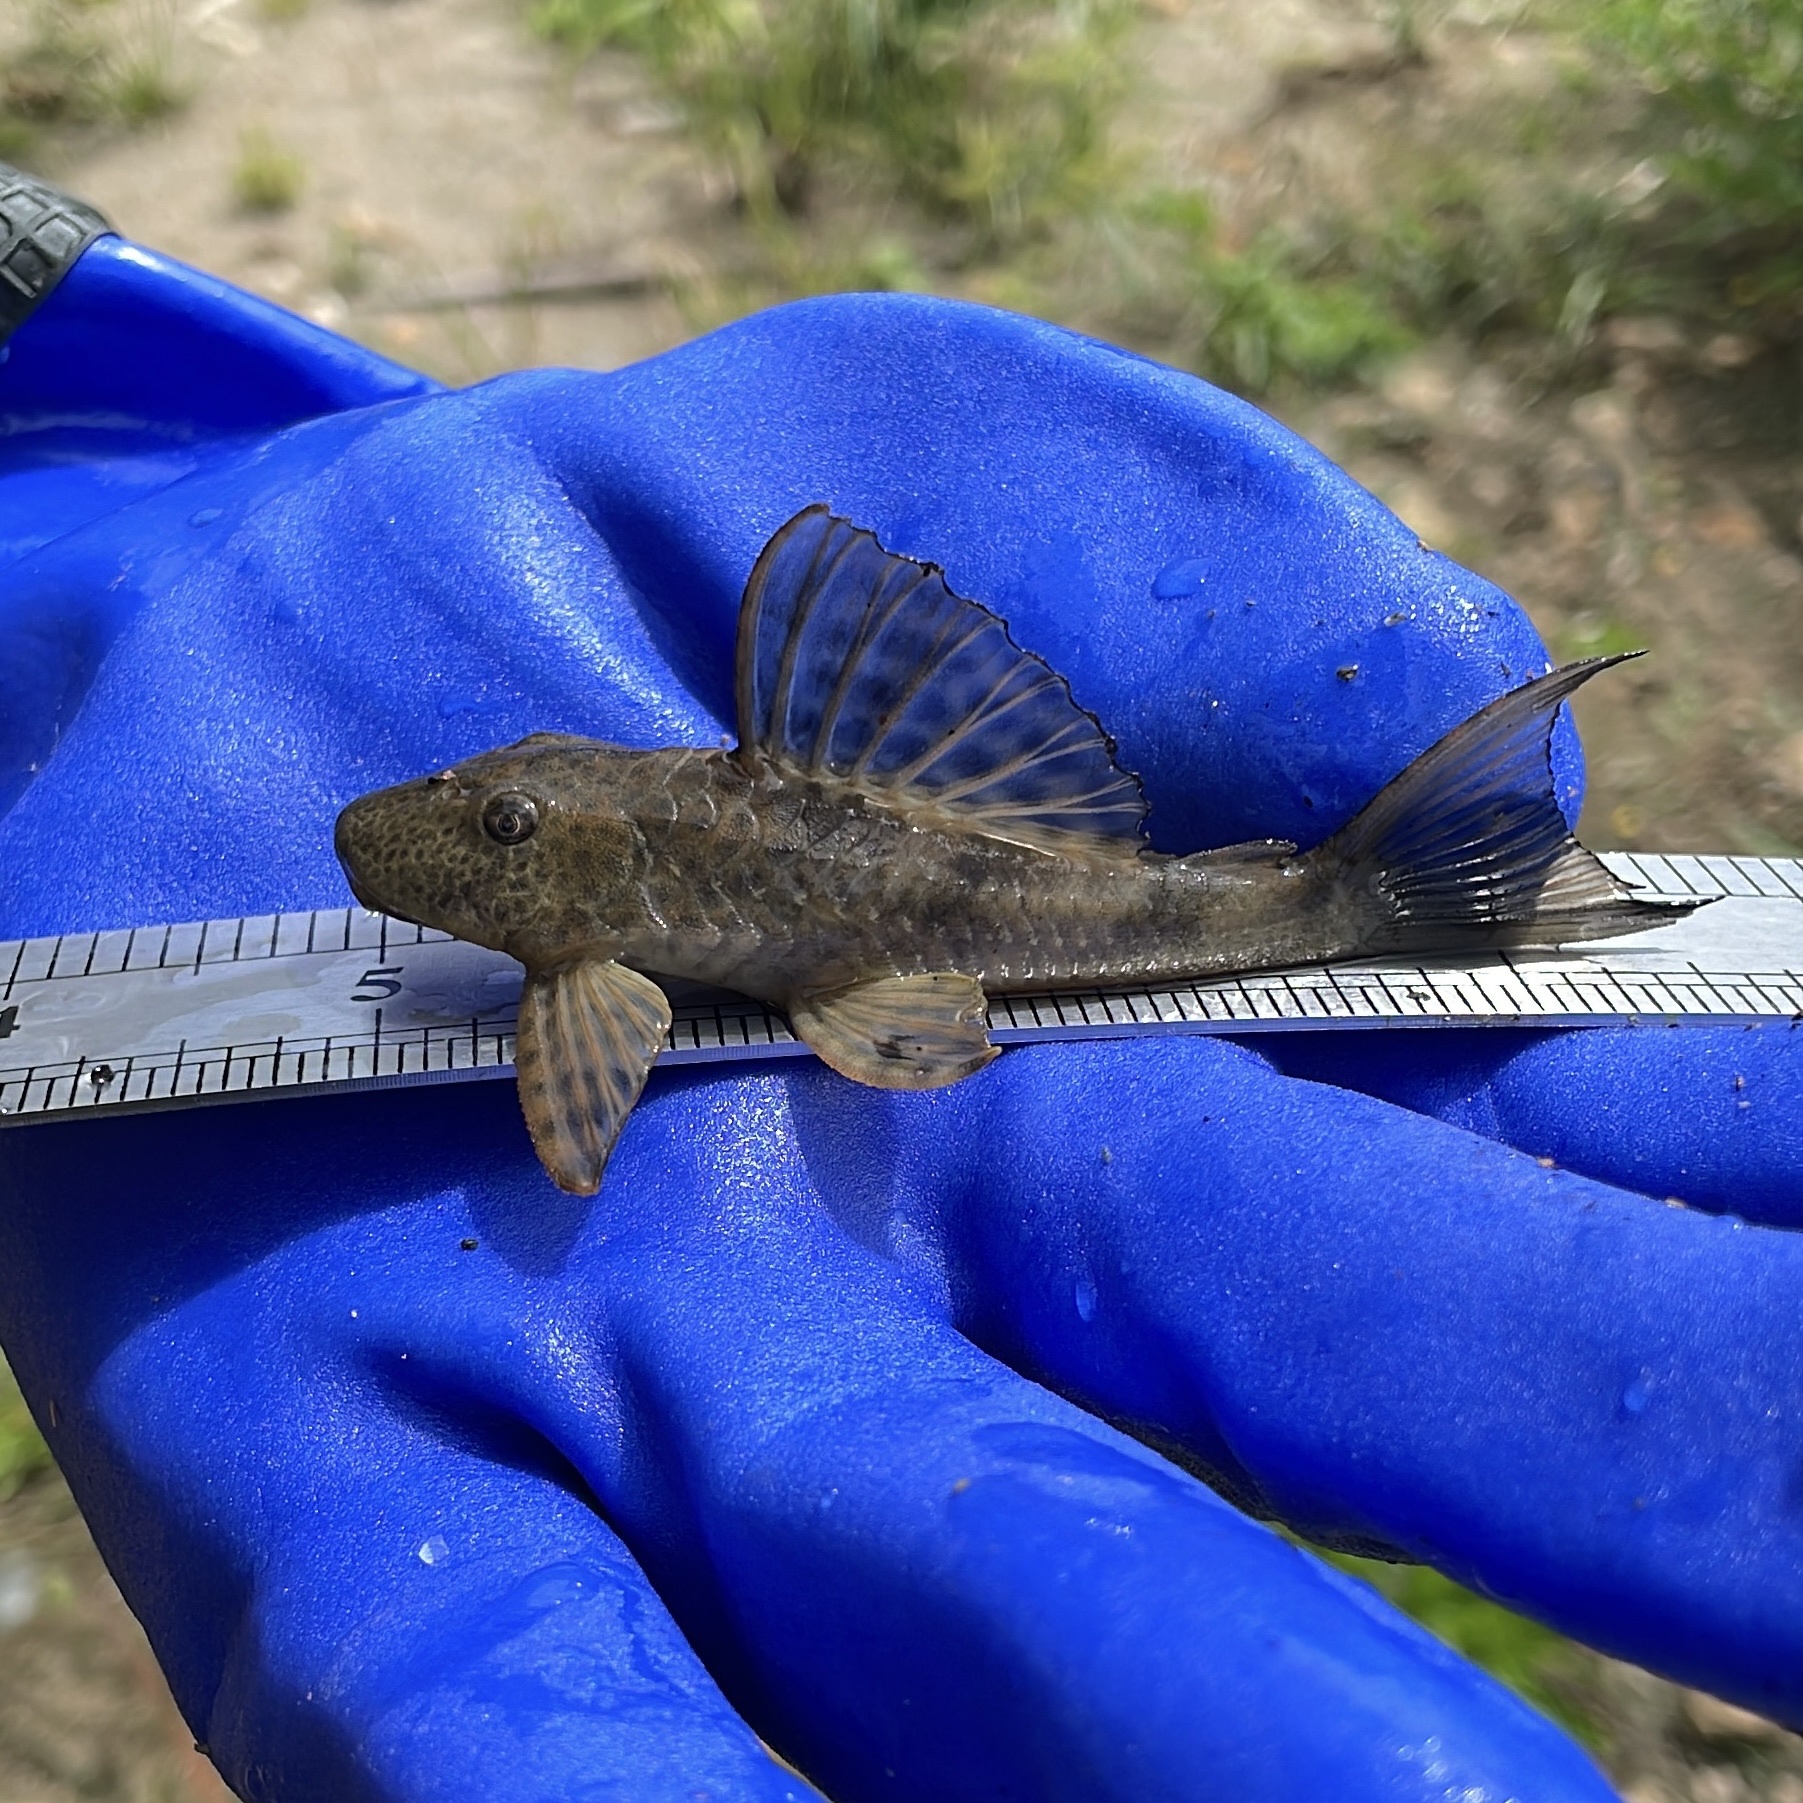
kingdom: Animalia
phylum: Chordata
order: Siluriformes
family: Loricariidae
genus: Hypostomus
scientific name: Hypostomus robinii
